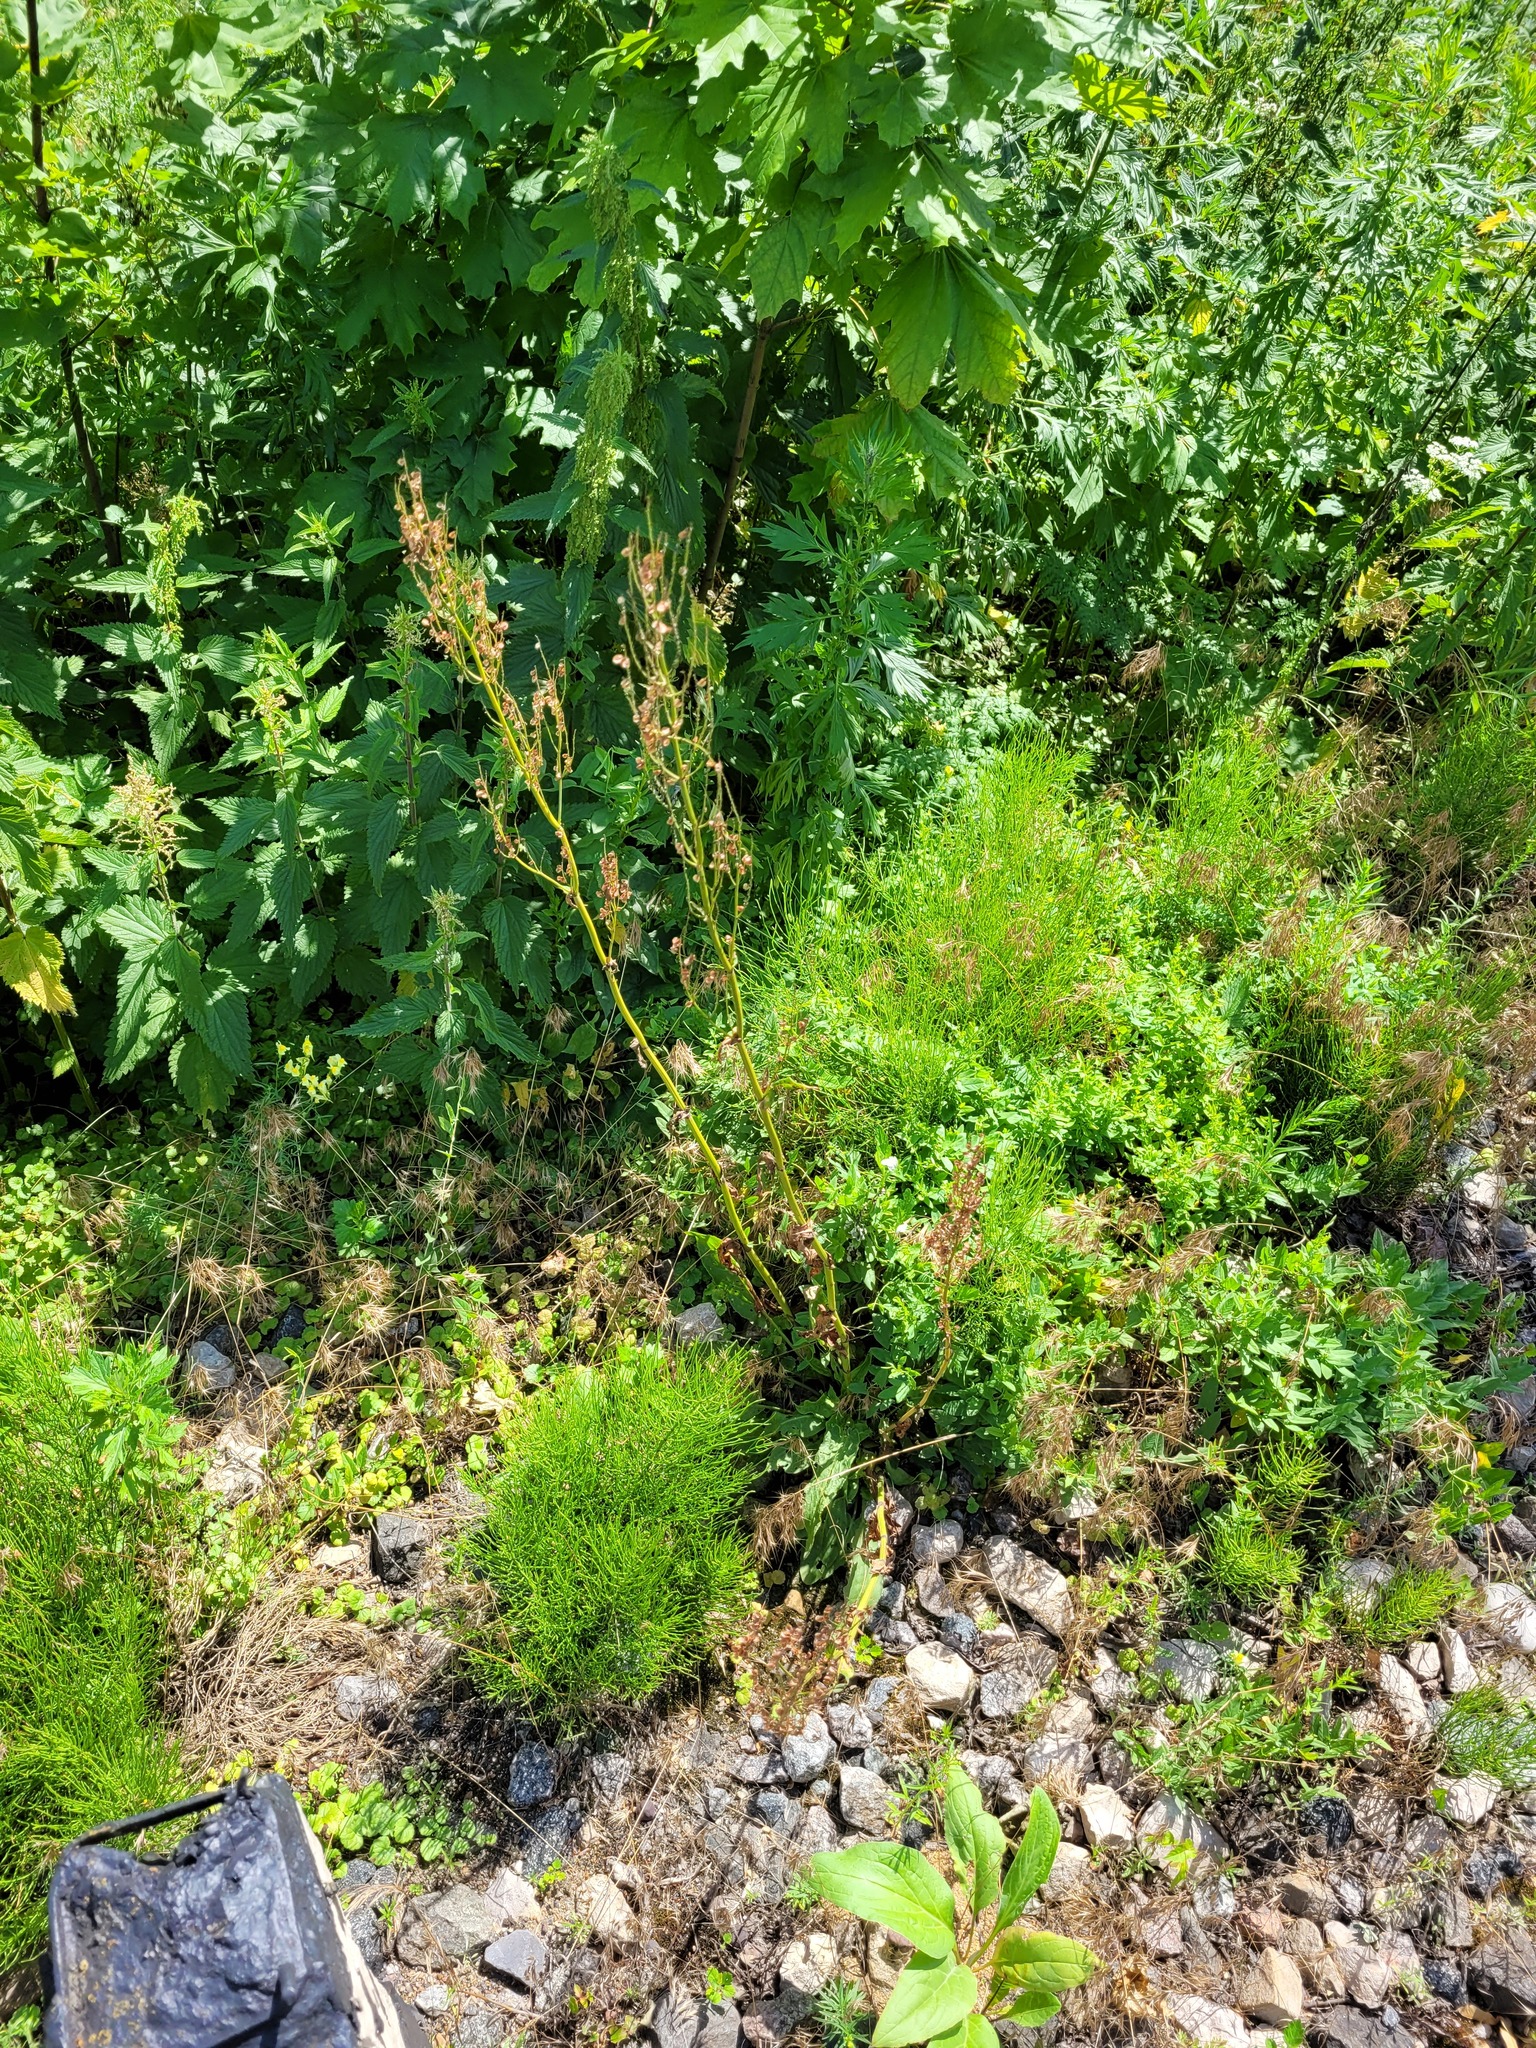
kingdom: Plantae
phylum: Tracheophyta
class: Magnoliopsida
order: Caryophyllales
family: Polygonaceae
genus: Rumex
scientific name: Rumex acetosa
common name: Garden sorrel
